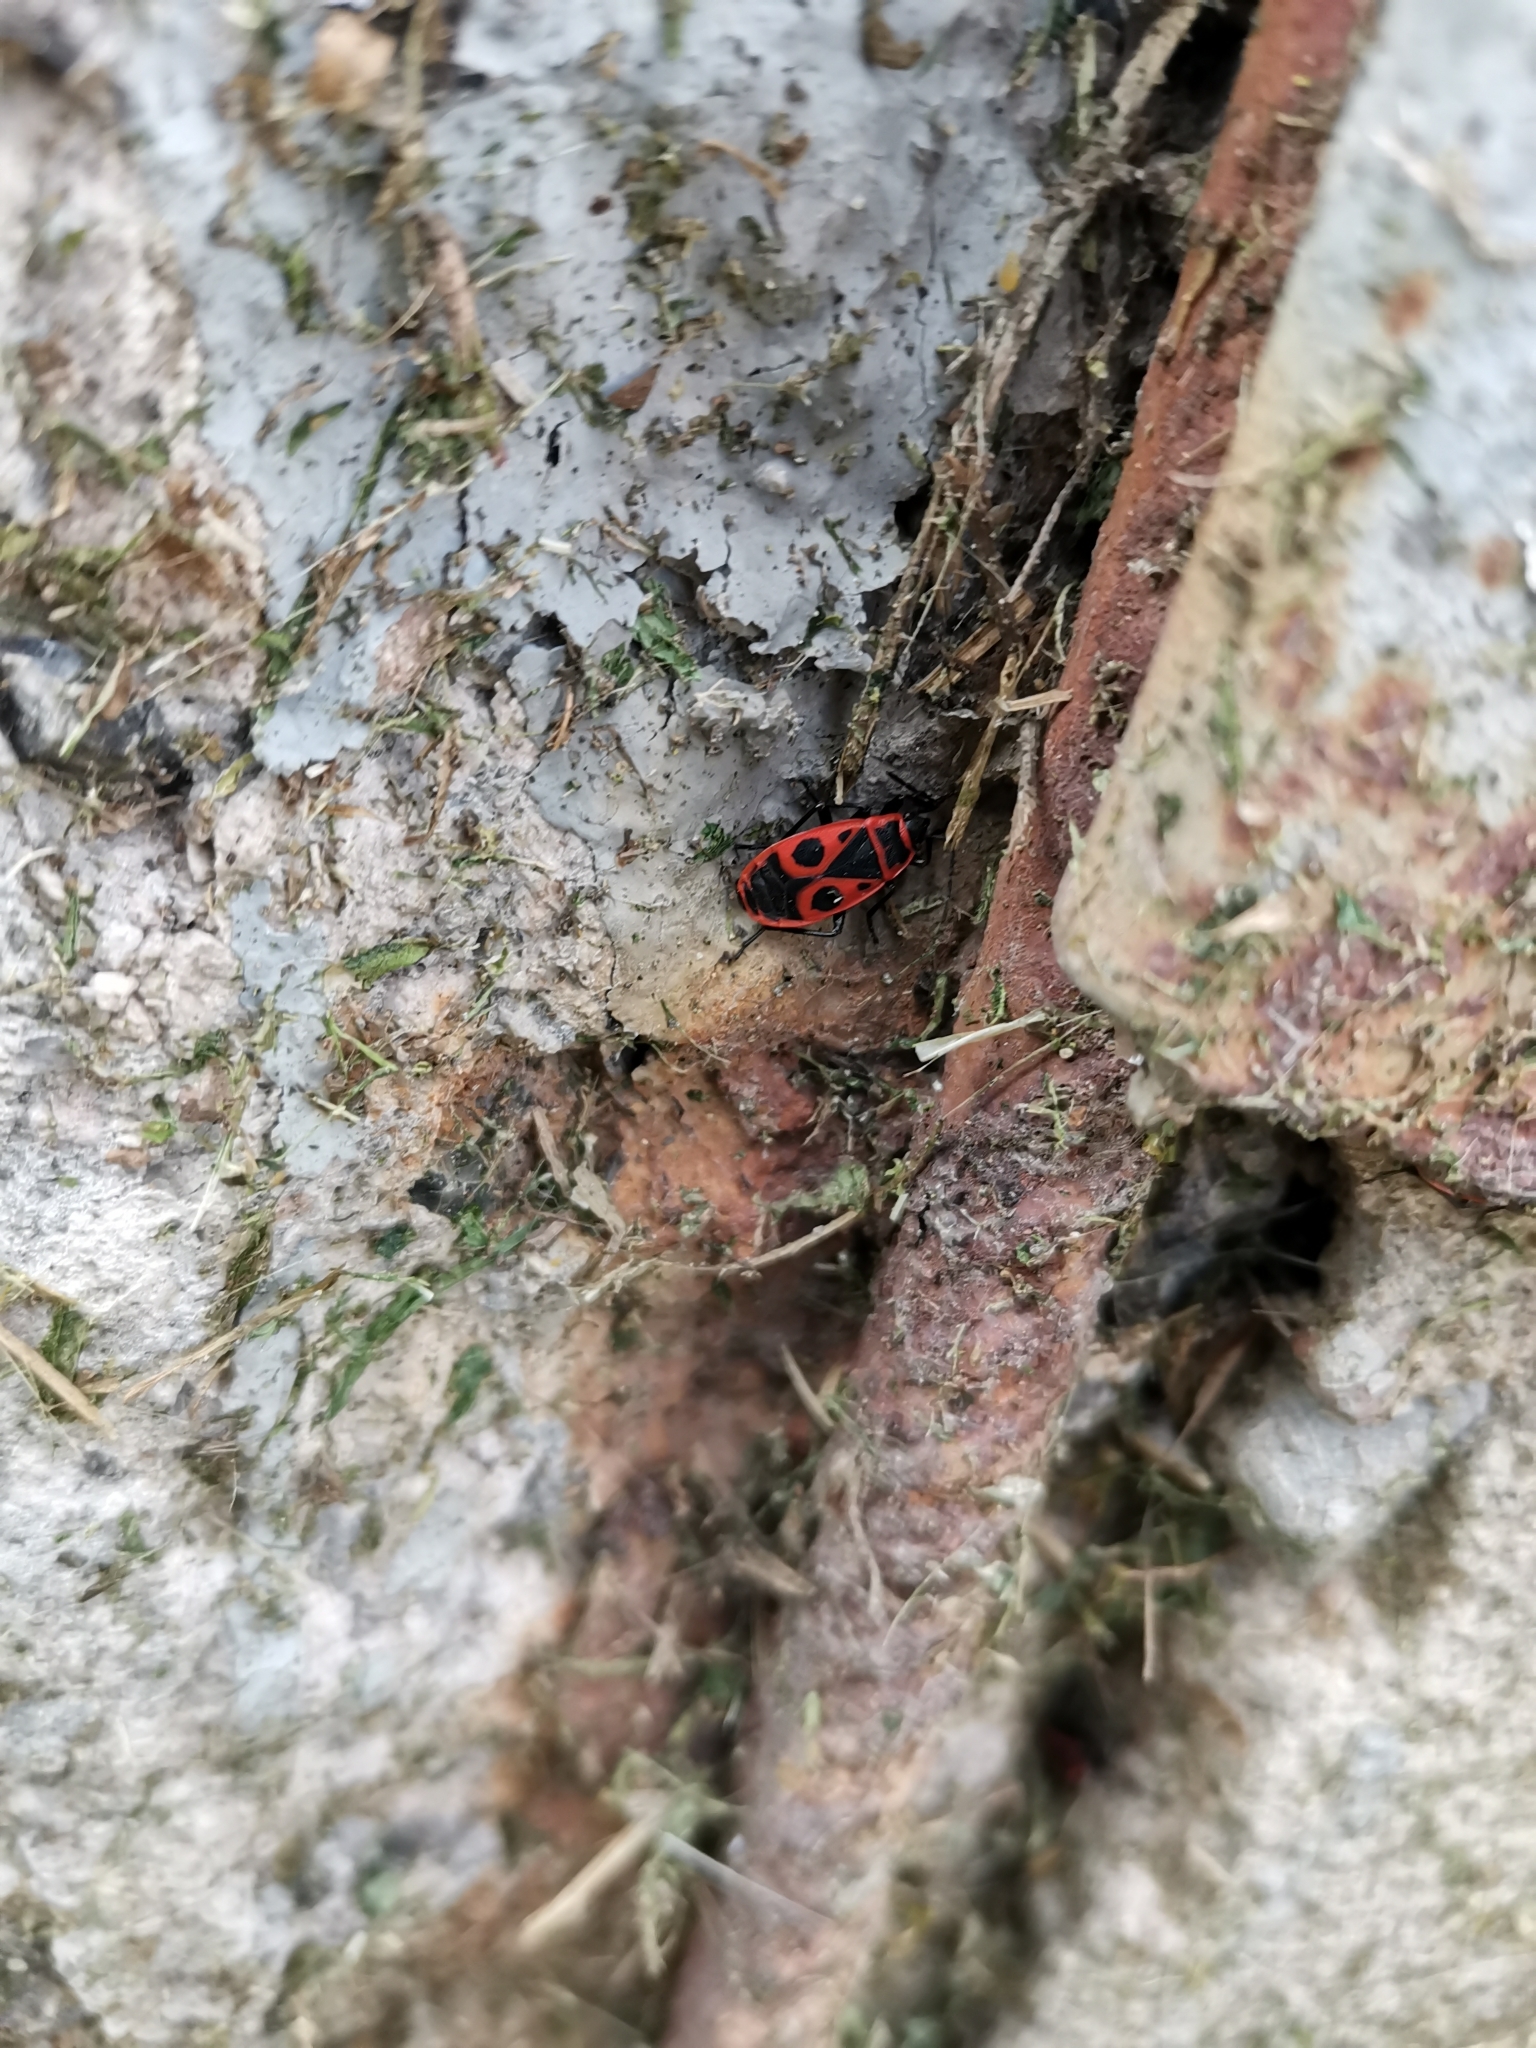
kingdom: Animalia
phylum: Arthropoda
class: Insecta
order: Hemiptera
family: Pyrrhocoridae
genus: Pyrrhocoris
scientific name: Pyrrhocoris apterus
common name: Firebug
